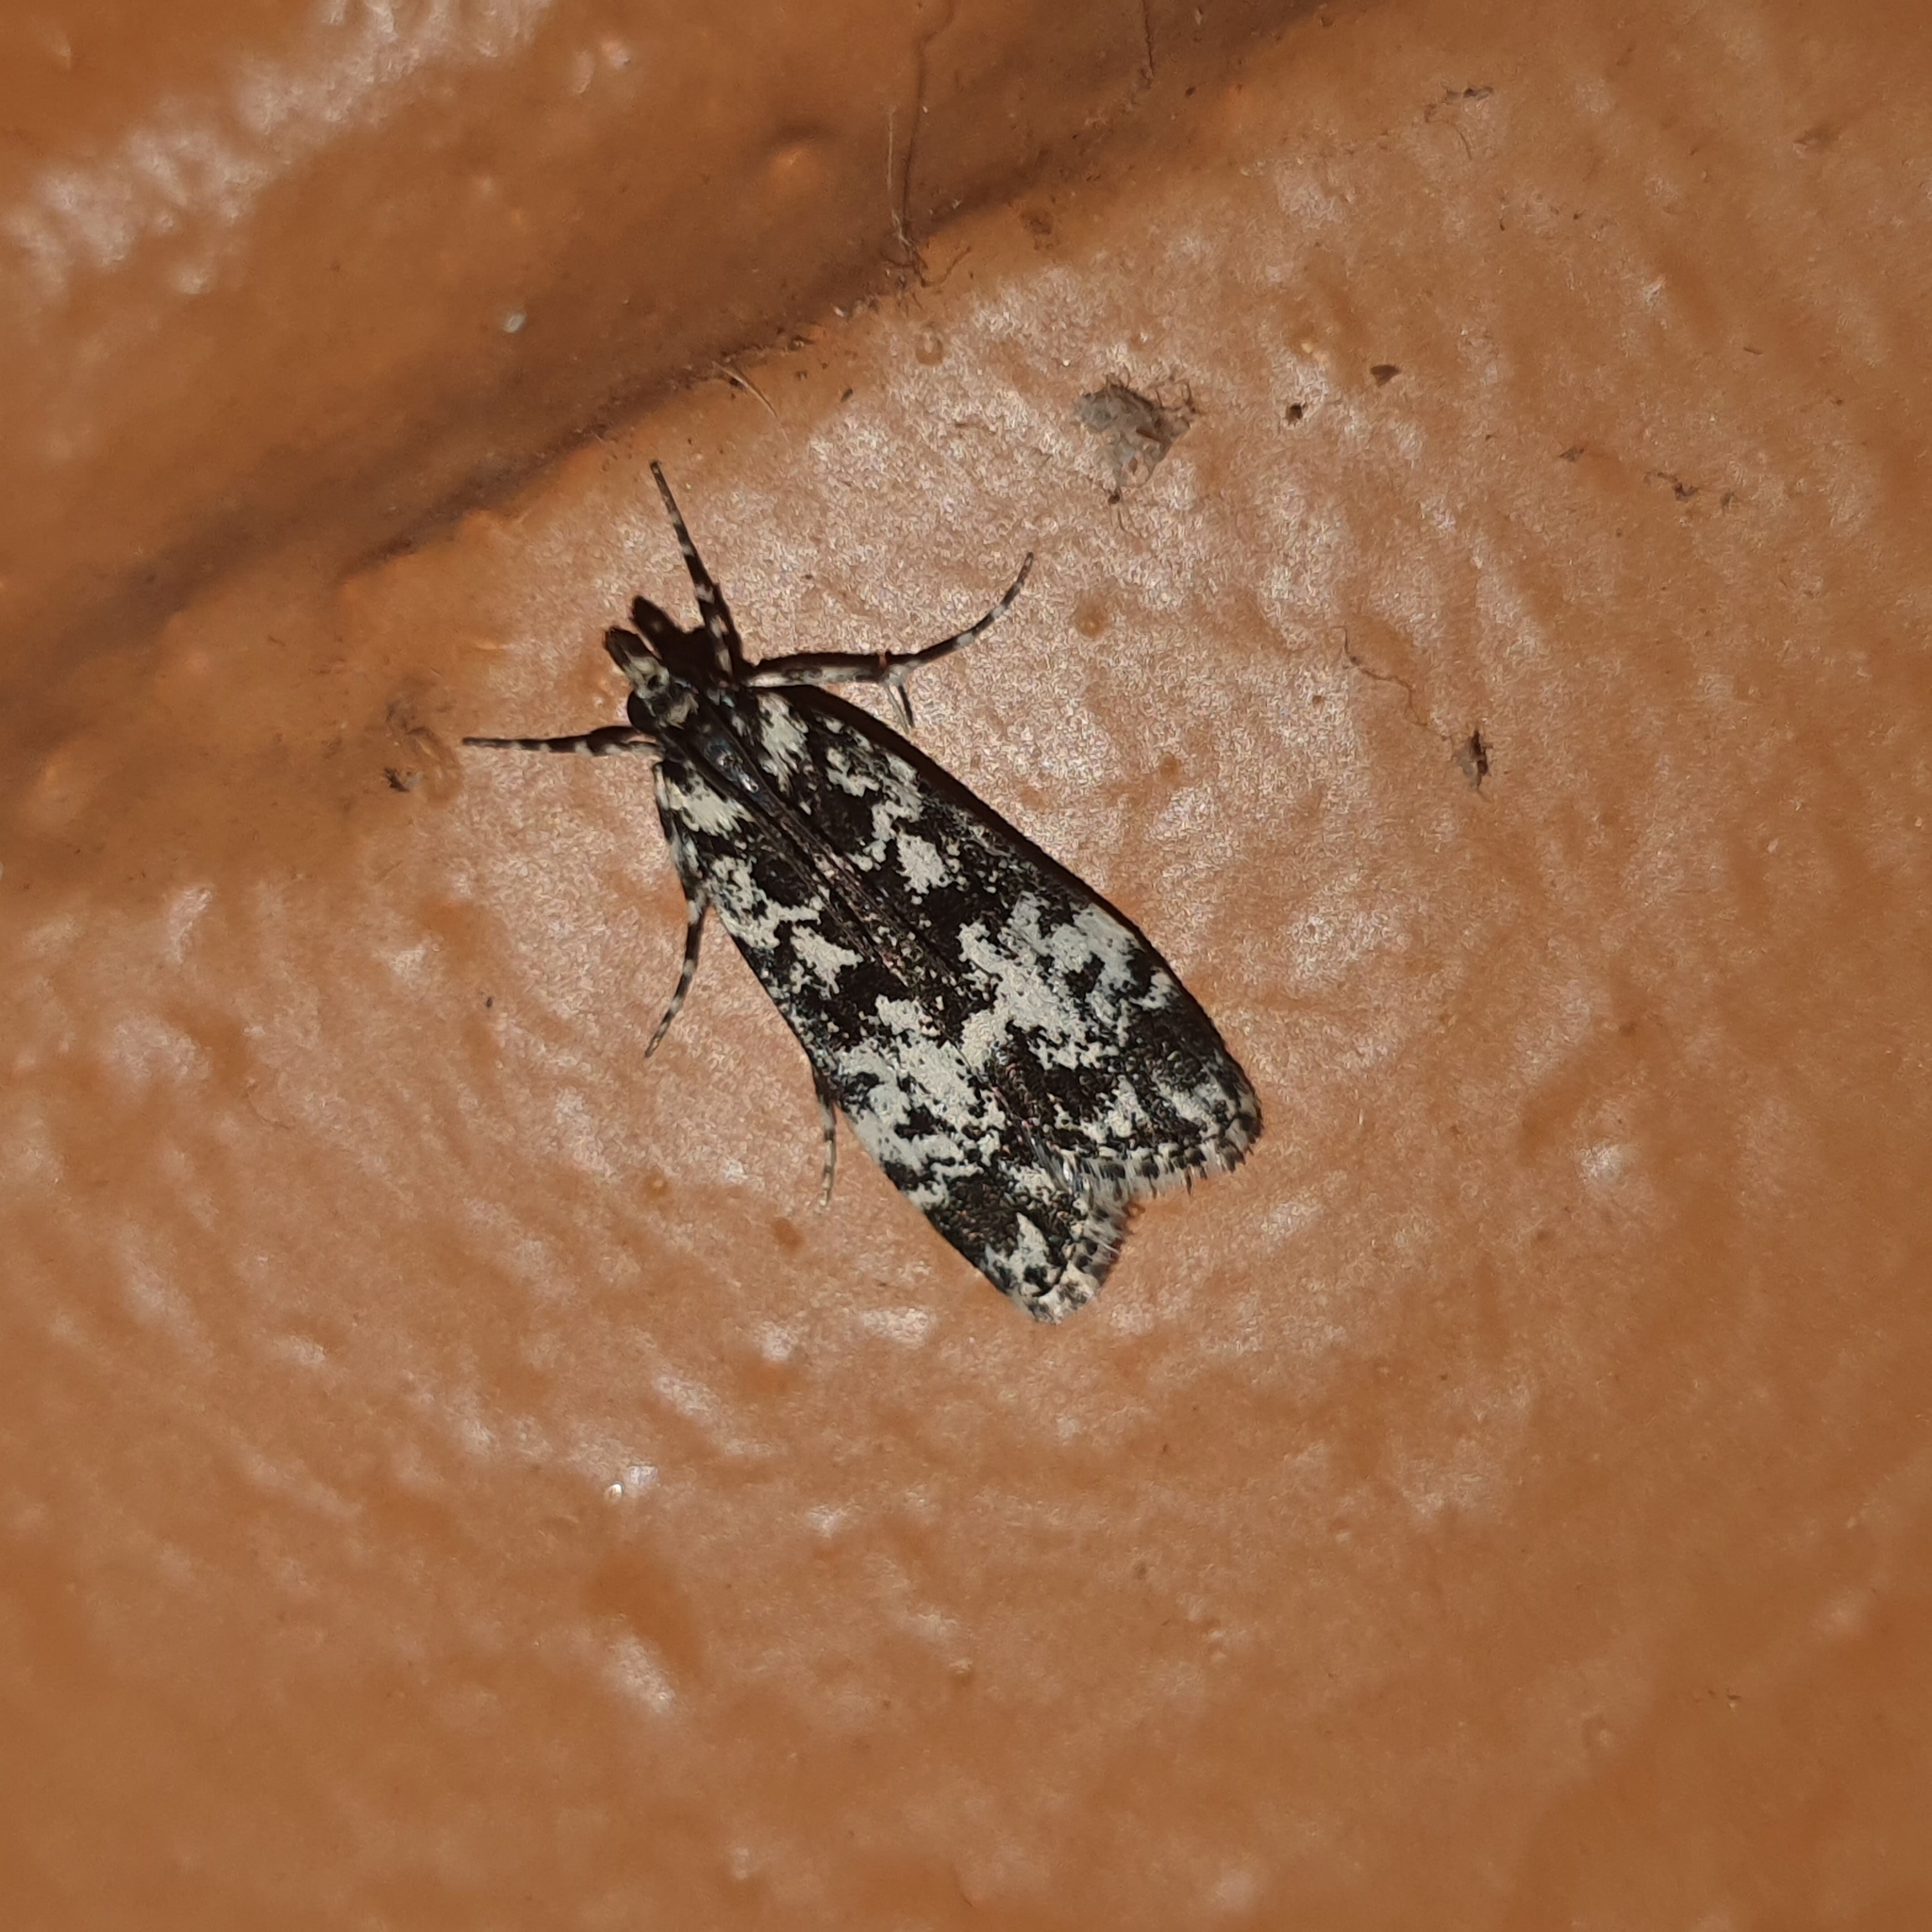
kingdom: Animalia
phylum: Arthropoda
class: Insecta
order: Lepidoptera
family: Crambidae
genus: Scoparia
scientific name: Scoparia exhibitalis
